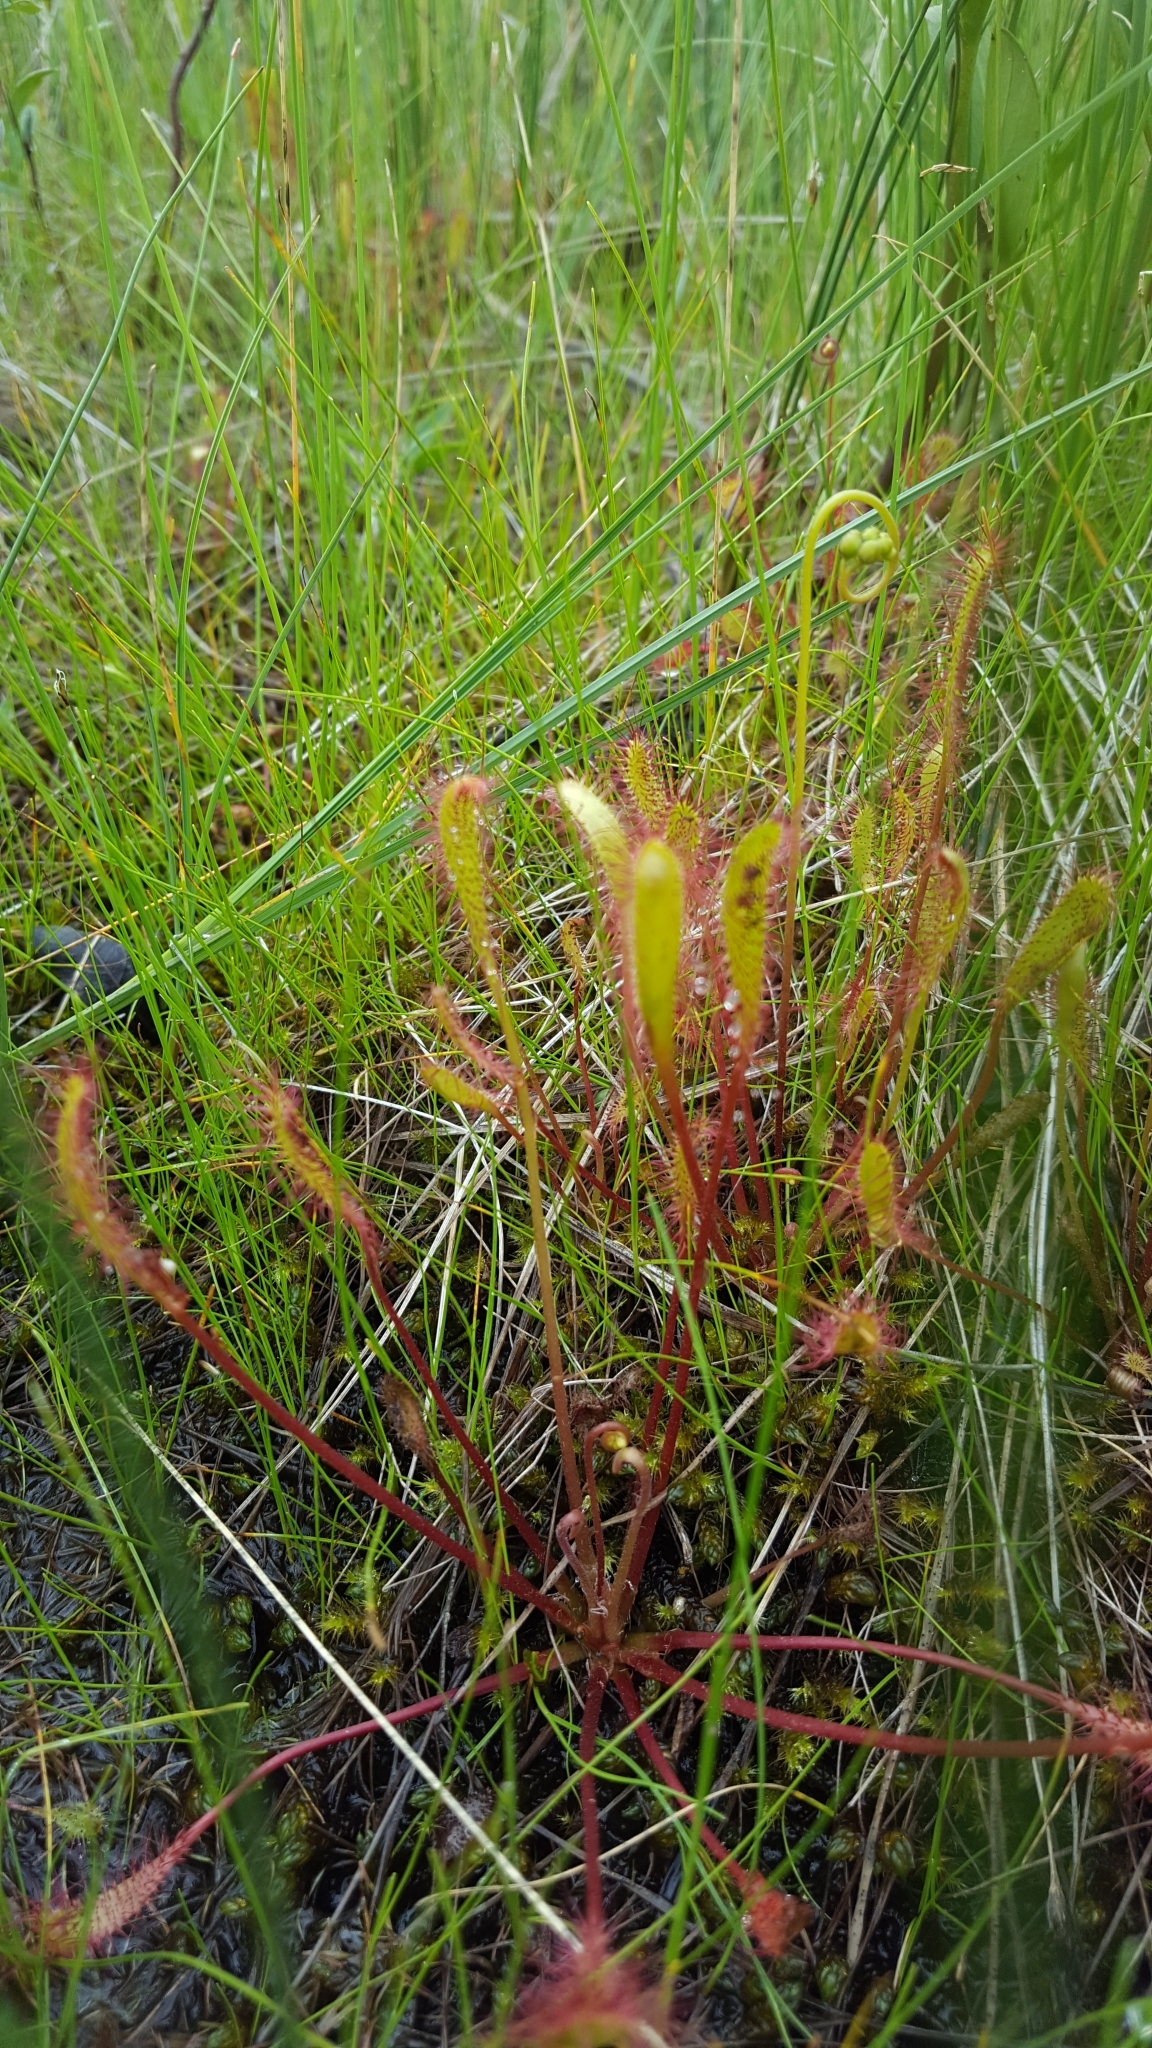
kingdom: Plantae
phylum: Tracheophyta
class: Magnoliopsida
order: Caryophyllales
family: Droseraceae
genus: Drosera
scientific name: Drosera anglica
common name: Great sundew
